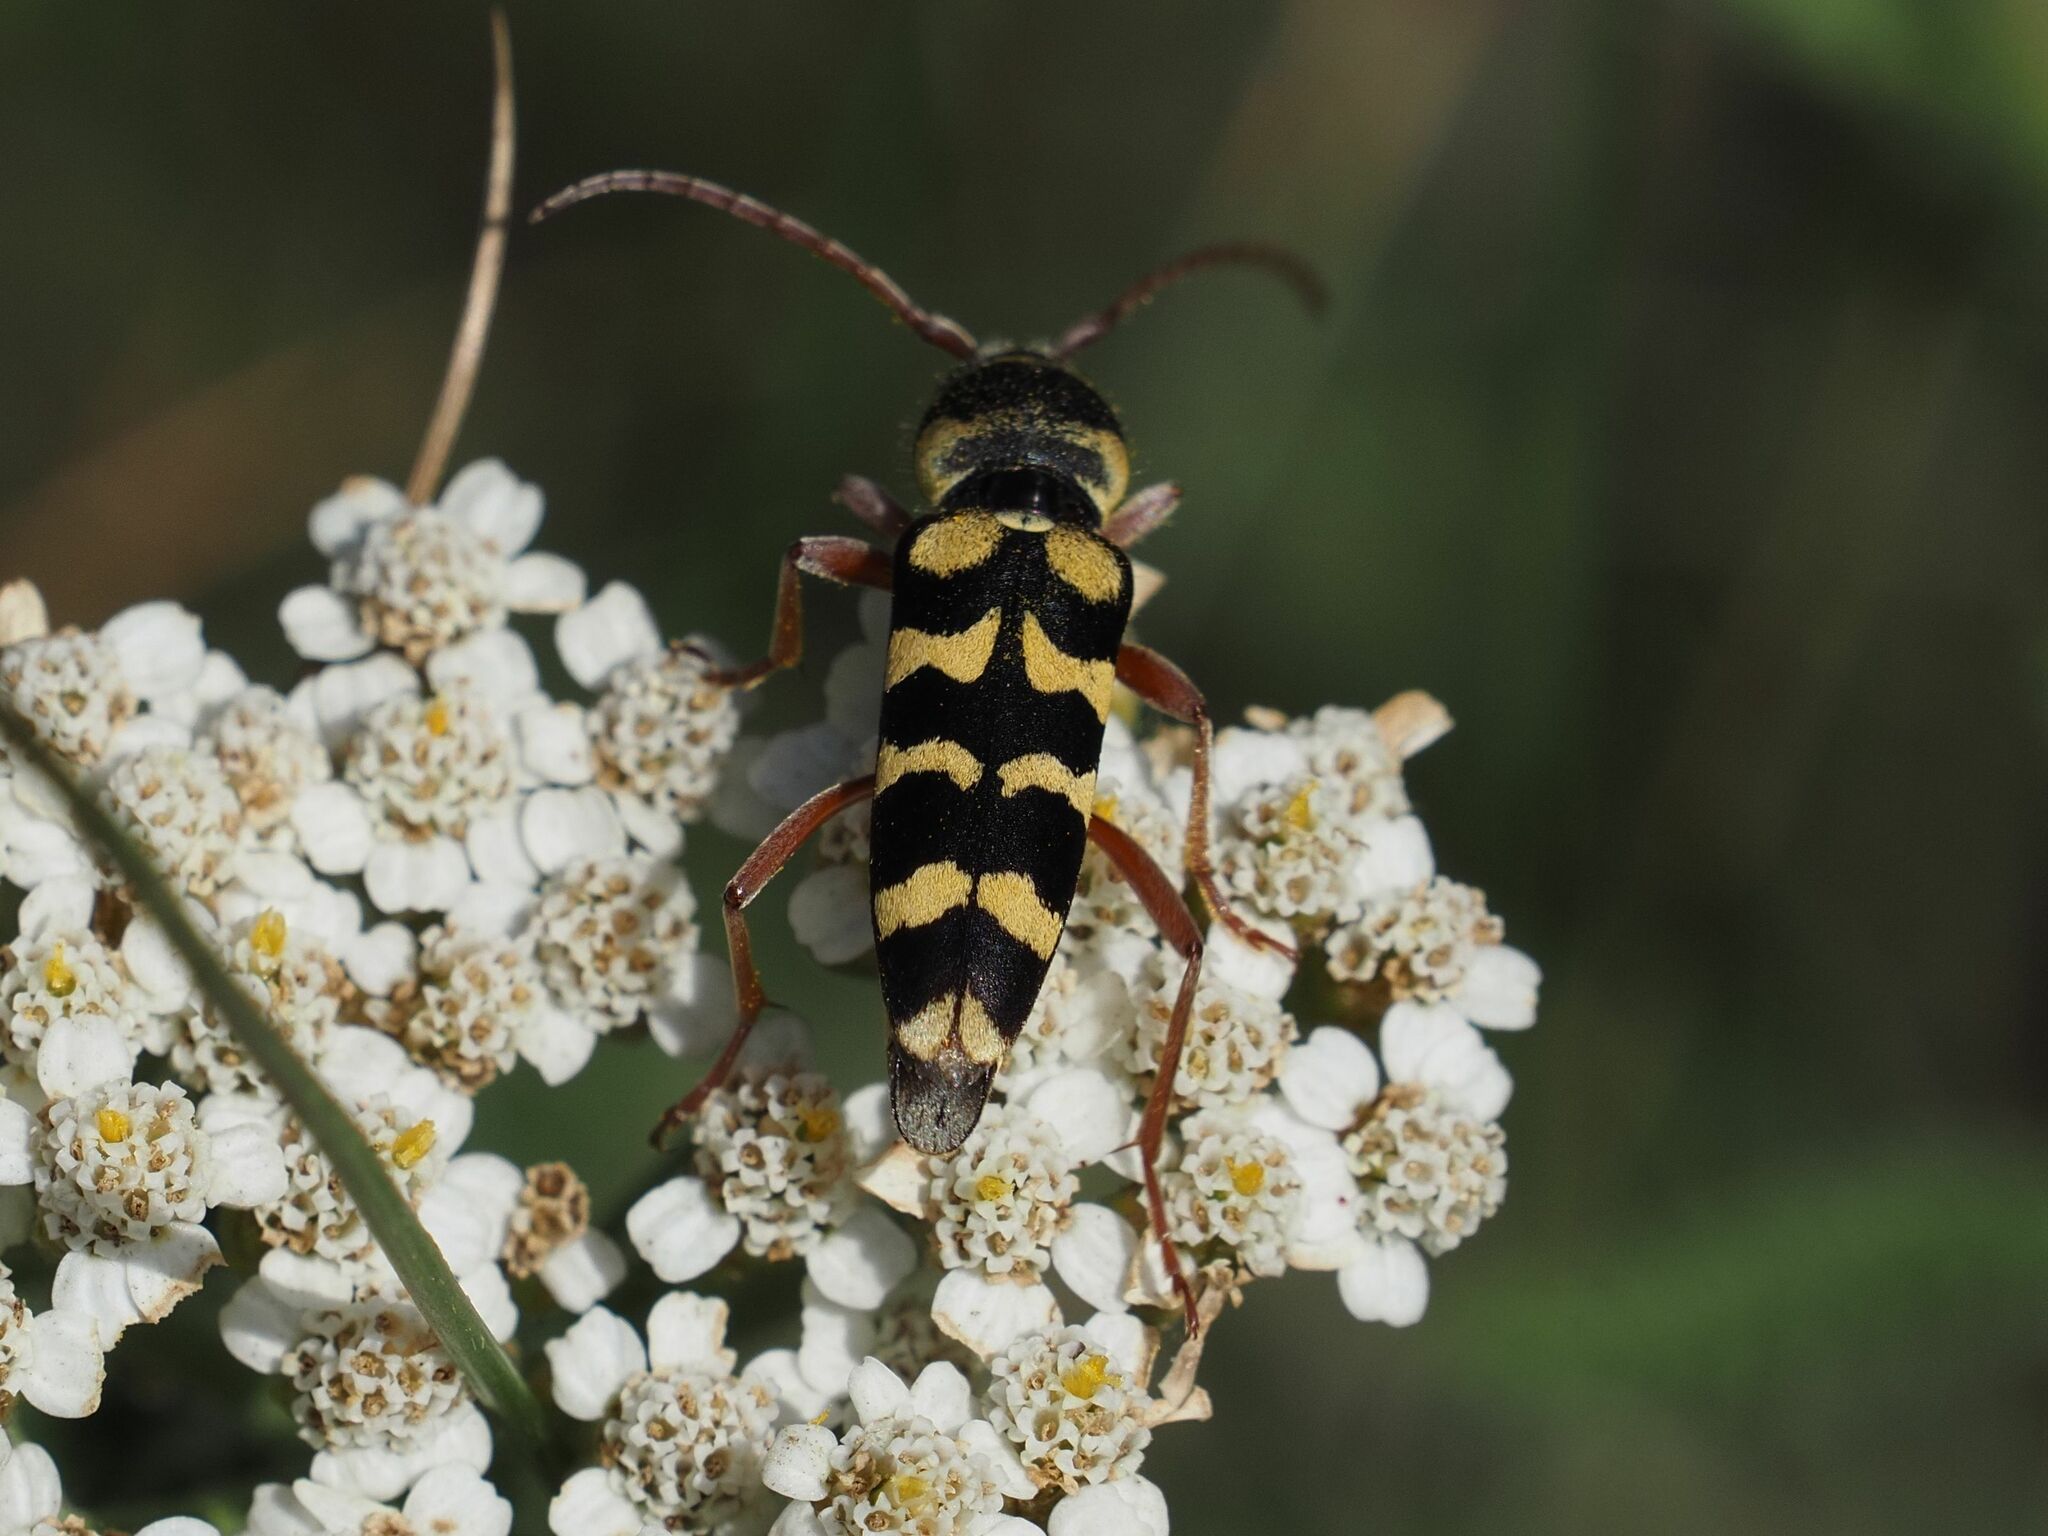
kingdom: Animalia
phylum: Arthropoda
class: Insecta
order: Coleoptera
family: Cerambycidae
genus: Plagionotus
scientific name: Plagionotus floralis
